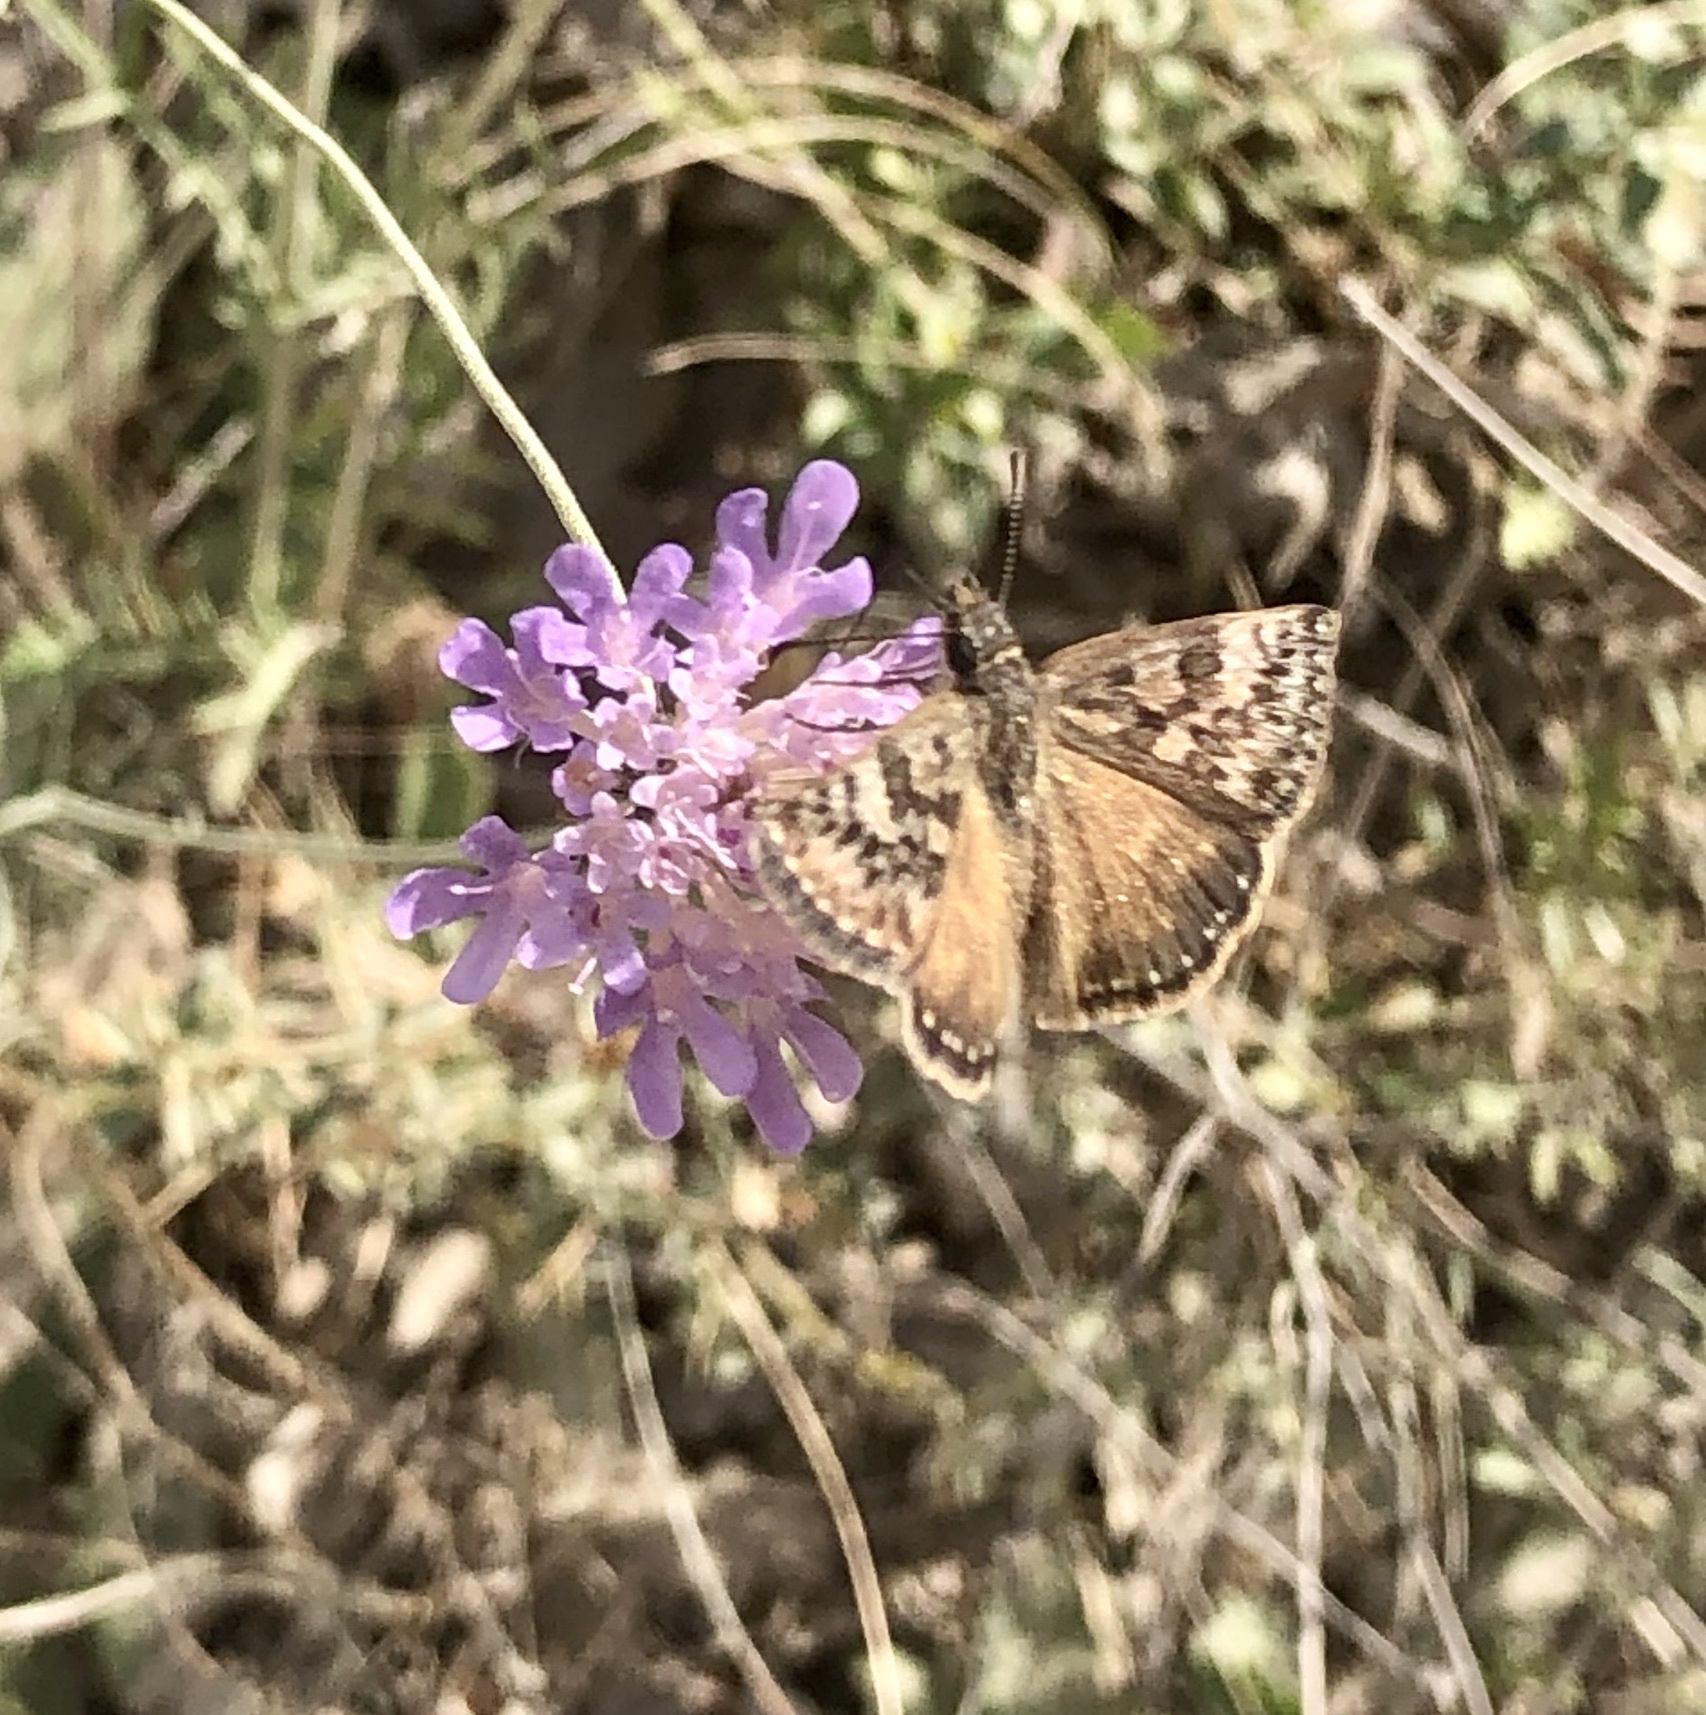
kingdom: Animalia
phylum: Arthropoda
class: Insecta
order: Lepidoptera
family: Hesperiidae
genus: Erynnis
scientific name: Erynnis tages
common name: Dingy skipper
